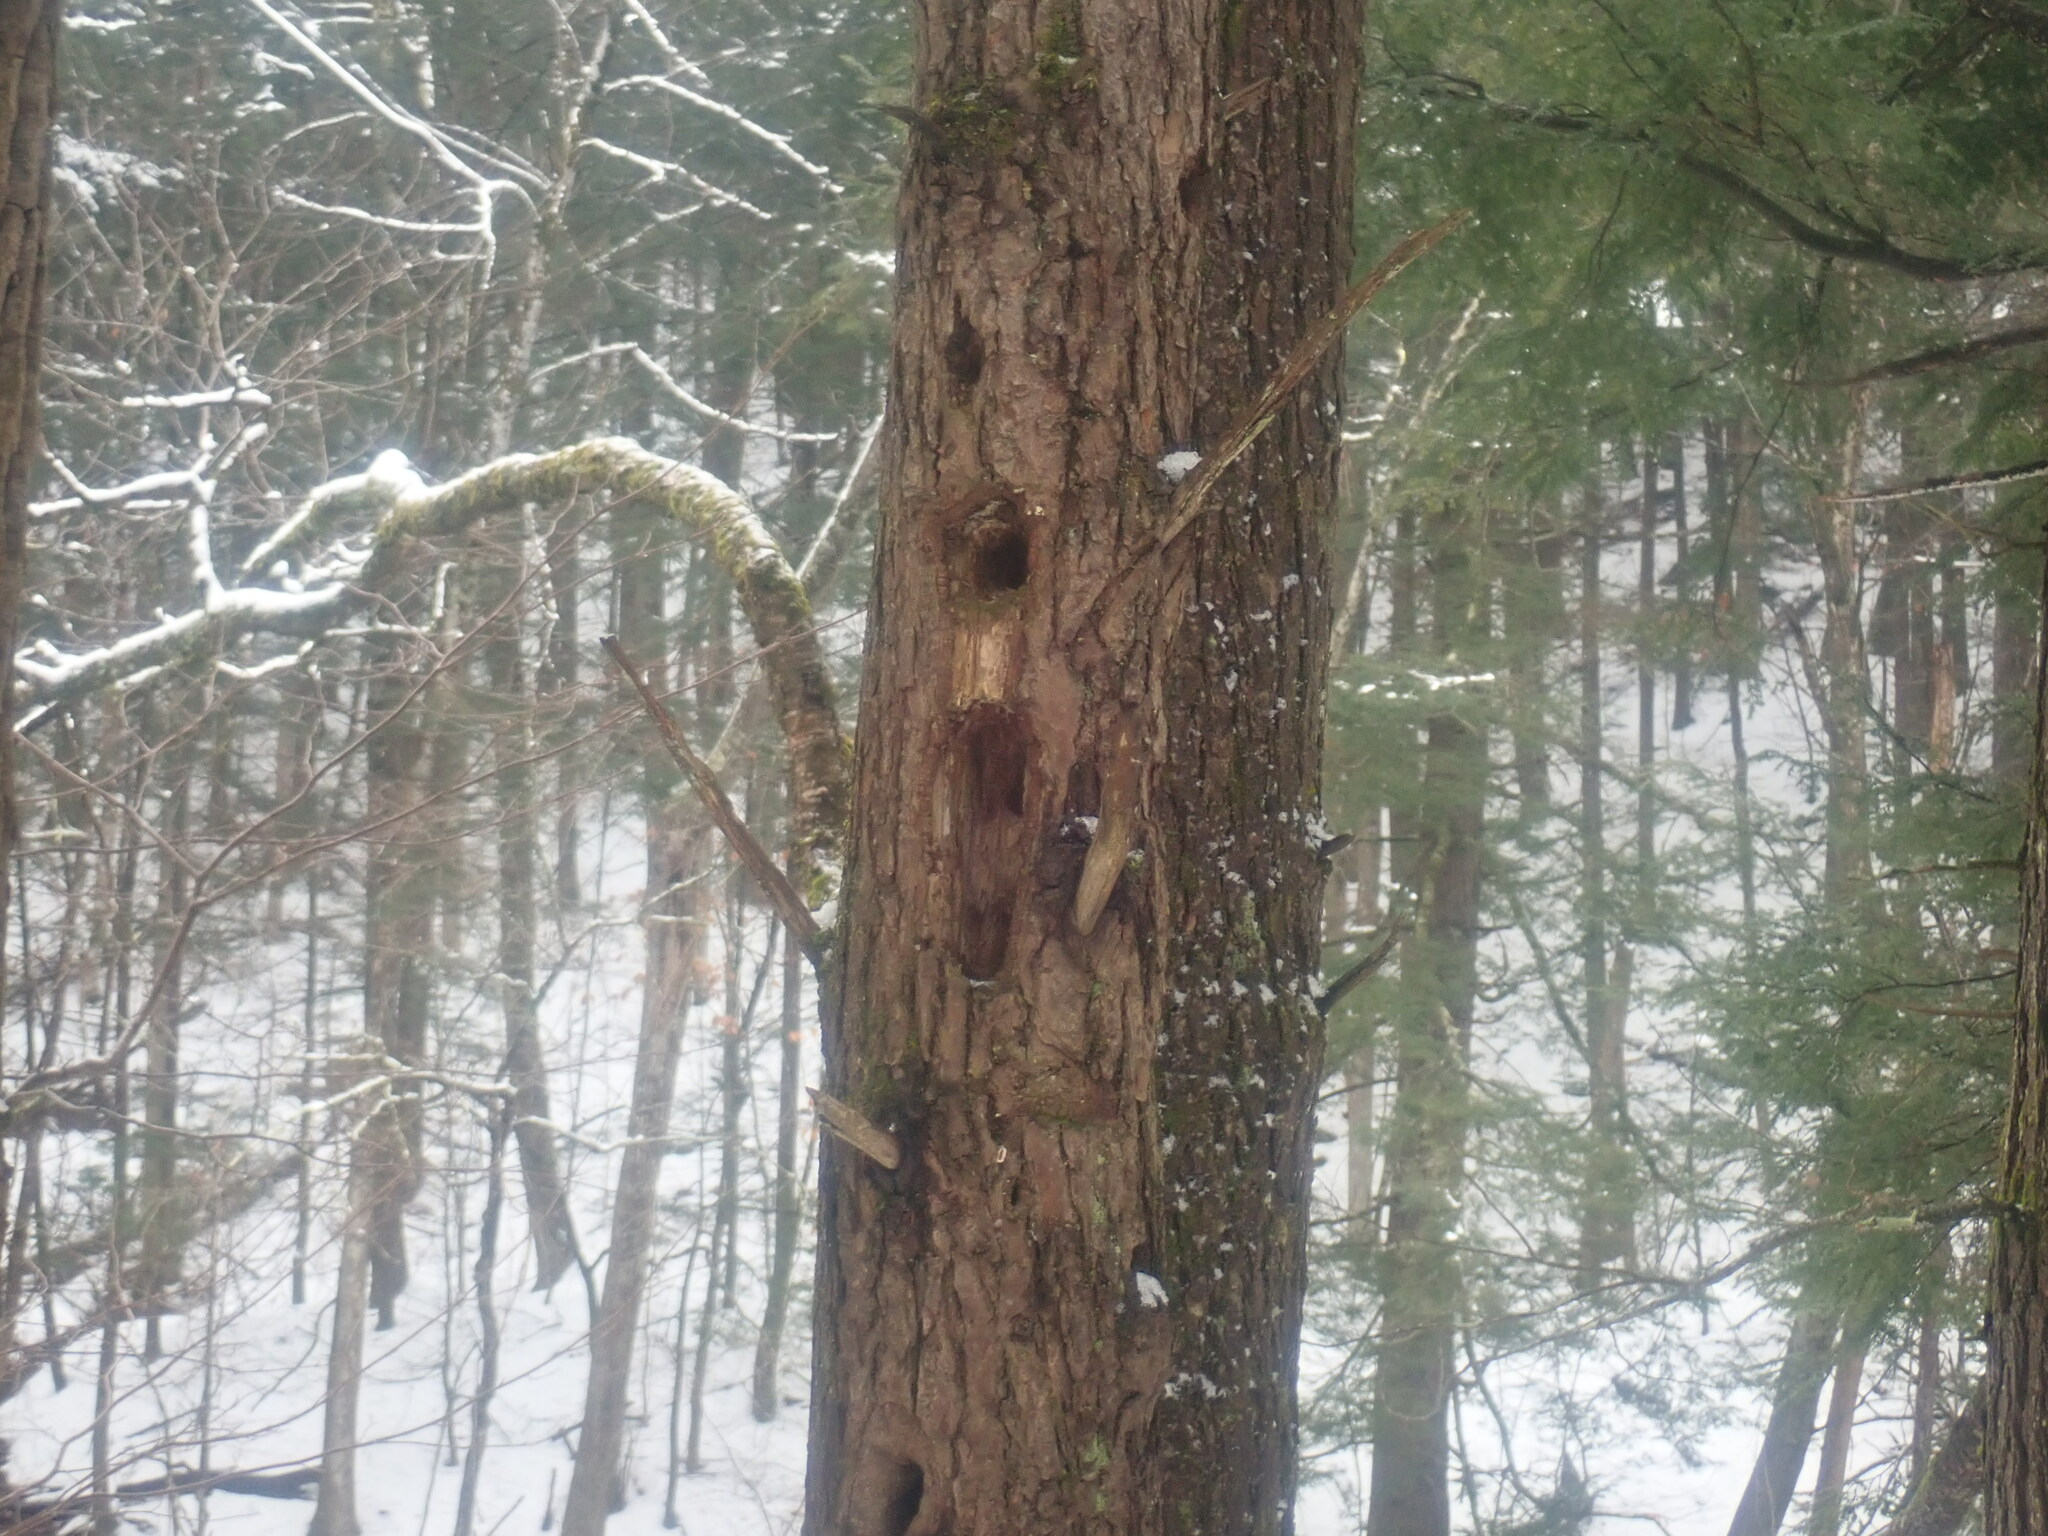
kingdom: Animalia
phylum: Chordata
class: Aves
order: Piciformes
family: Picidae
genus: Dryocopus
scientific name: Dryocopus pileatus
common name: Pileated woodpecker
